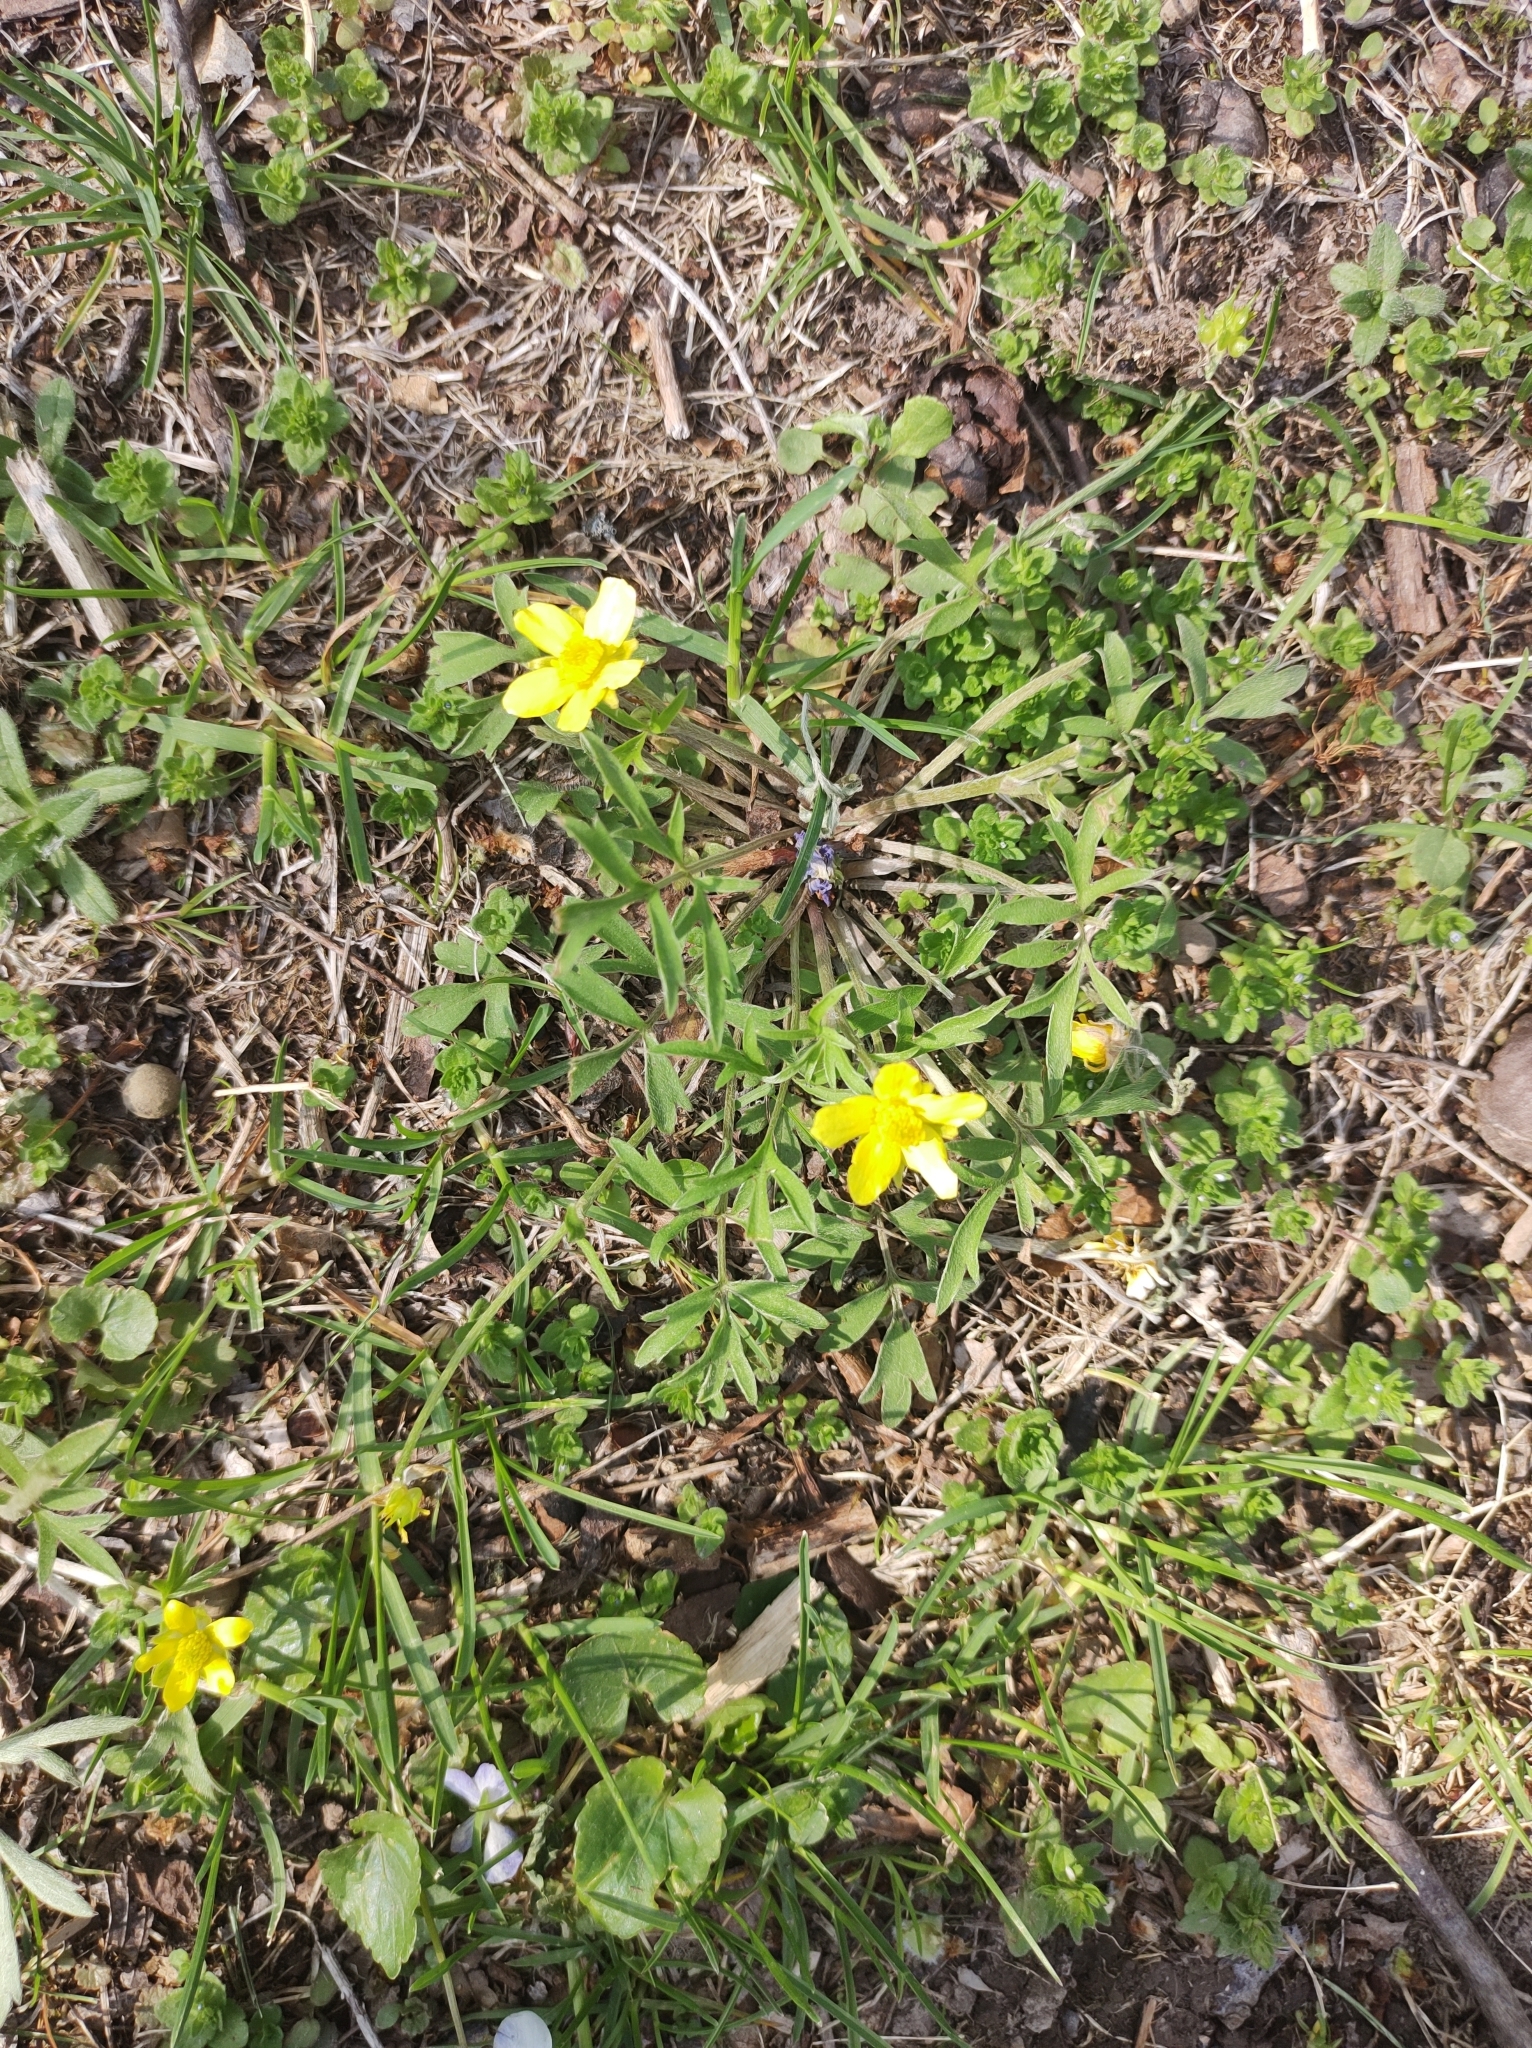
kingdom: Plantae
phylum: Tracheophyta
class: Magnoliopsida
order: Ranunculales
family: Ranunculaceae
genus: Ranunculus
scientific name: Ranunculus fascicularis
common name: Early buttercup
